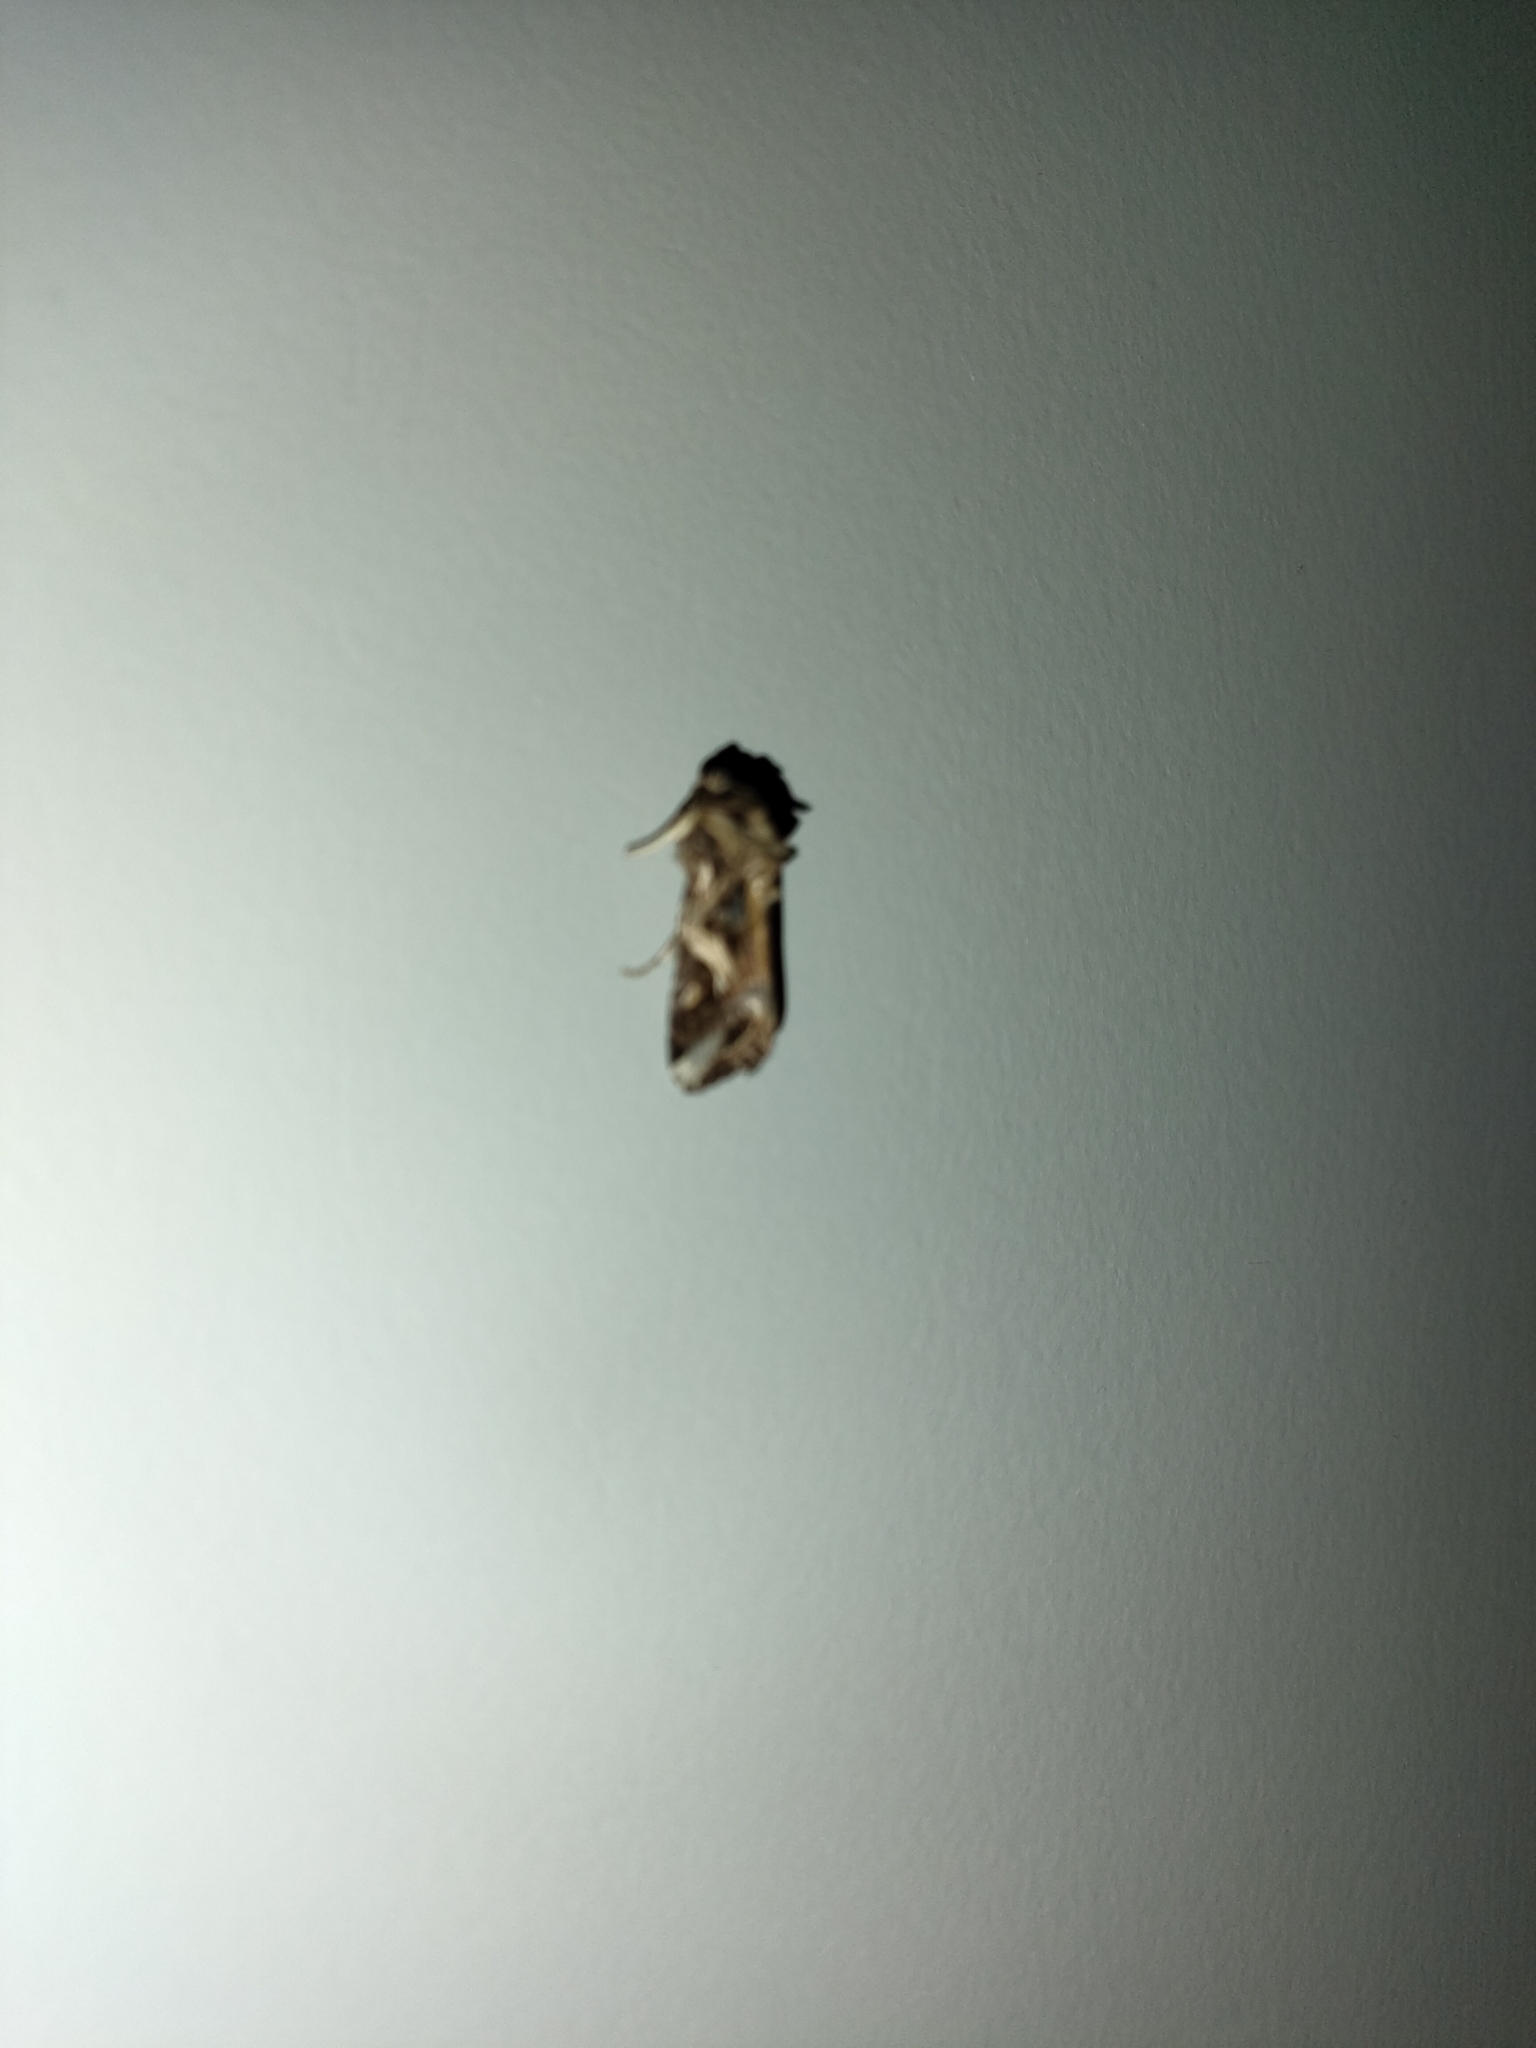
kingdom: Animalia
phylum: Arthropoda
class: Insecta
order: Lepidoptera
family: Noctuidae
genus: Spodoptera
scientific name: Spodoptera litura
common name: Asian cotton leafworm
